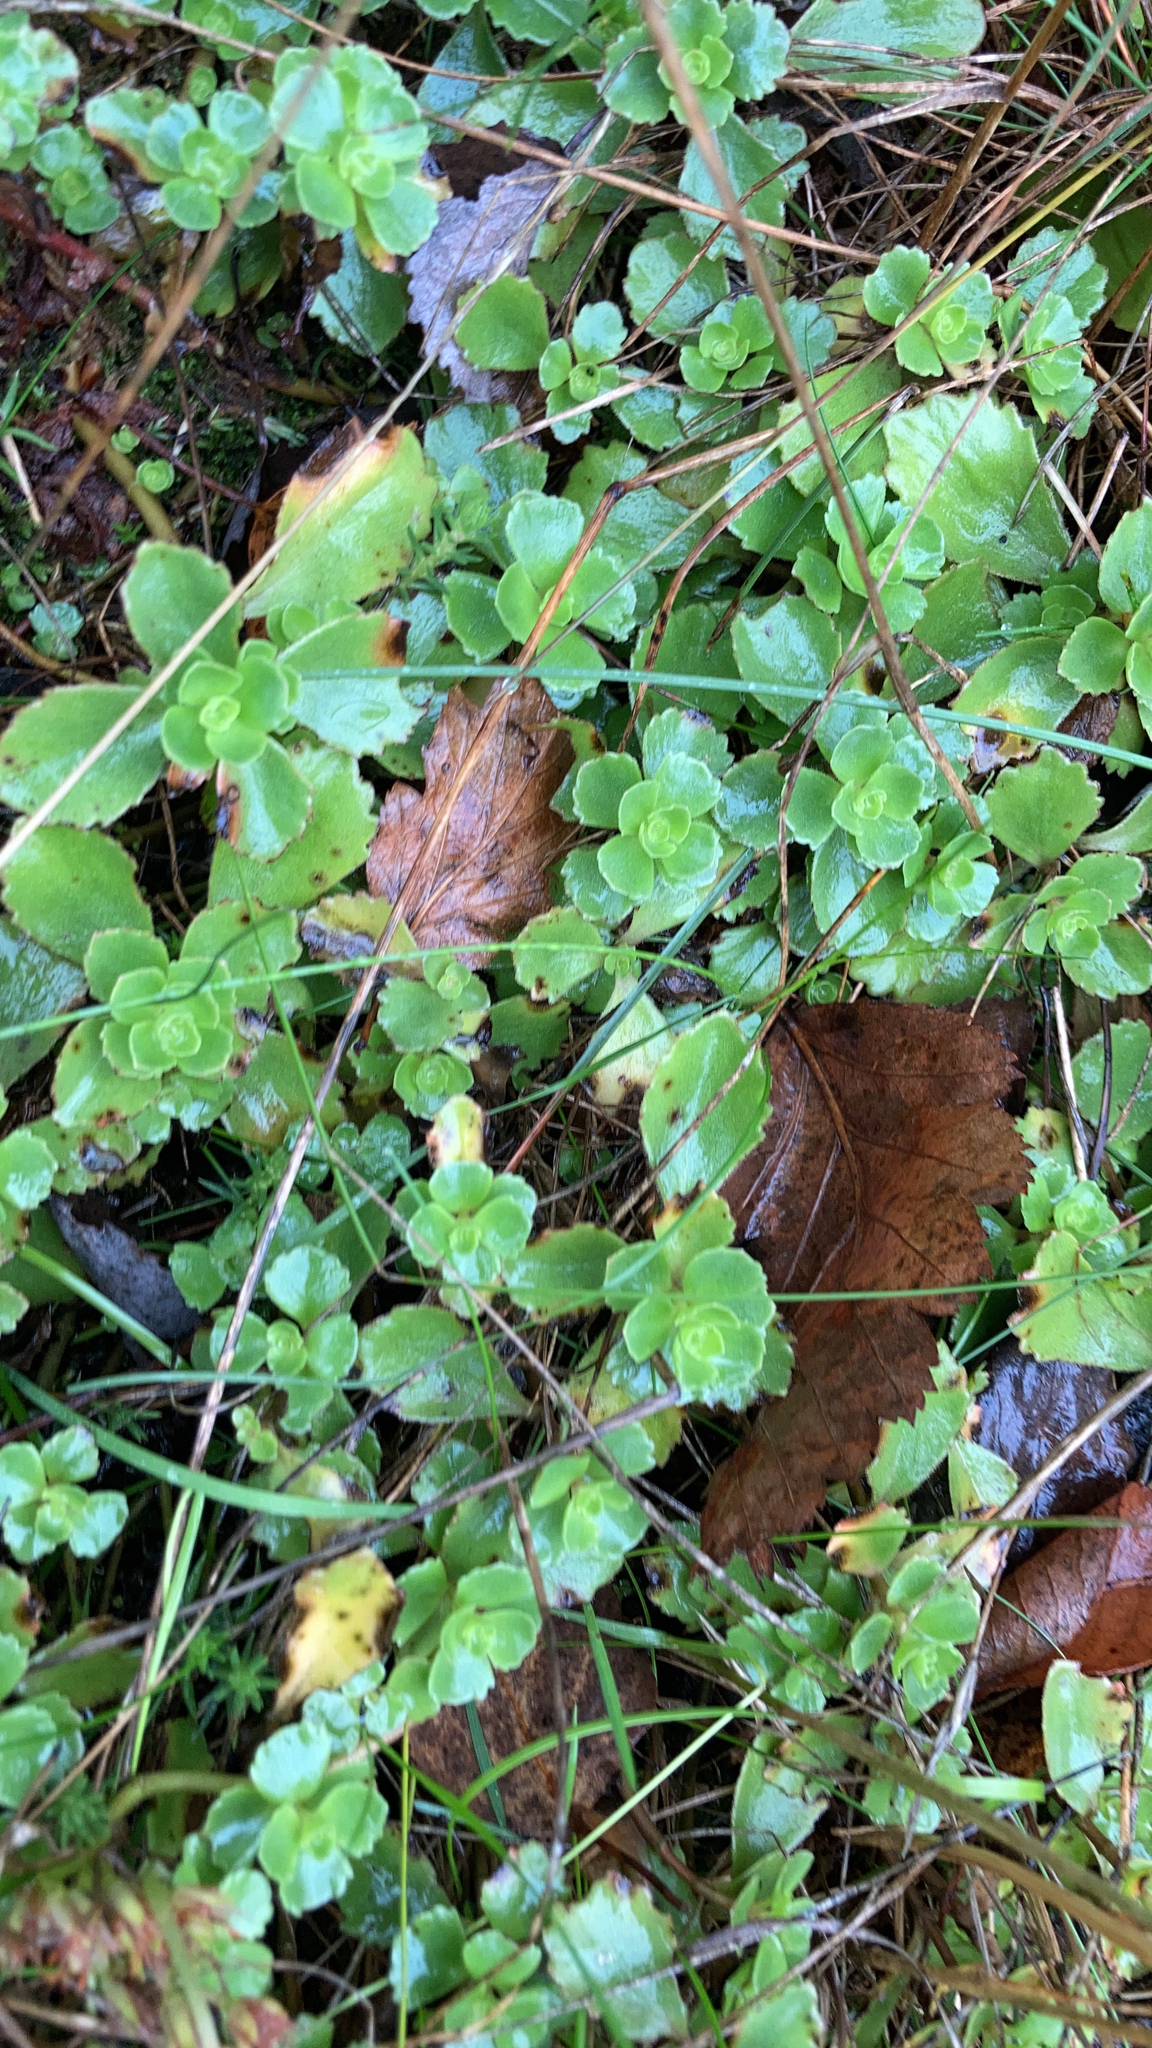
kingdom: Plantae
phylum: Tracheophyta
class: Magnoliopsida
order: Saxifragales
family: Crassulaceae
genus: Phedimus
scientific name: Phedimus spurius
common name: Caucasian stonecrop
